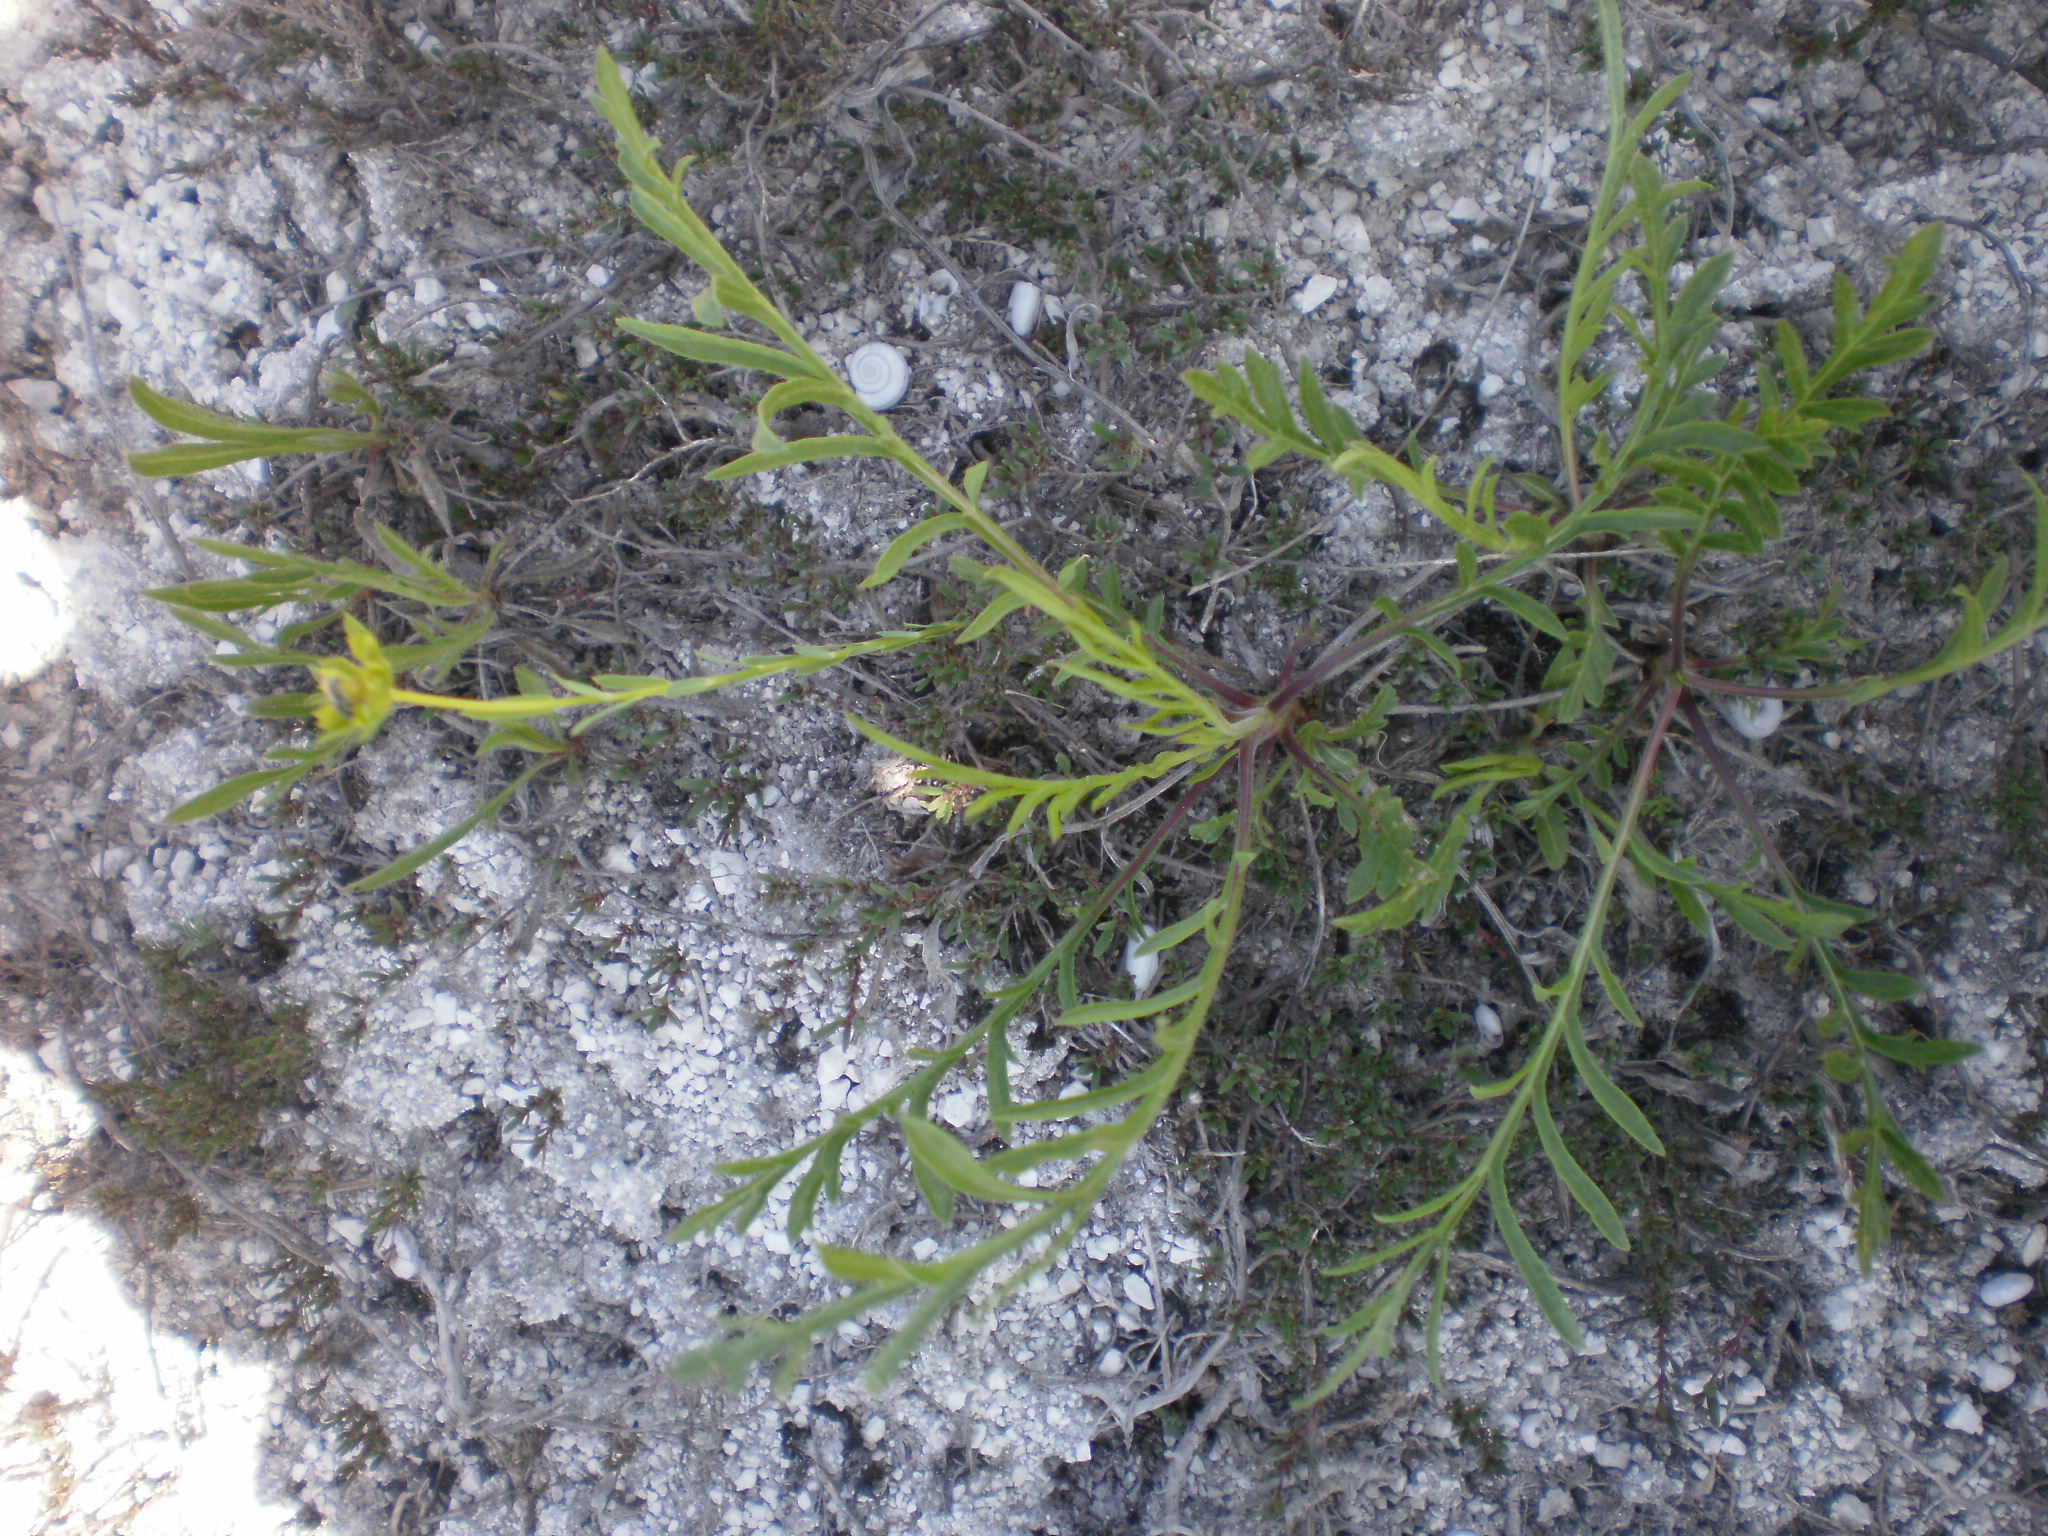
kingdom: Plantae
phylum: Tracheophyta
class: Magnoliopsida
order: Dipsacales
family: Caprifoliaceae
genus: Cephalaria
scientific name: Cephalaria uralensis
